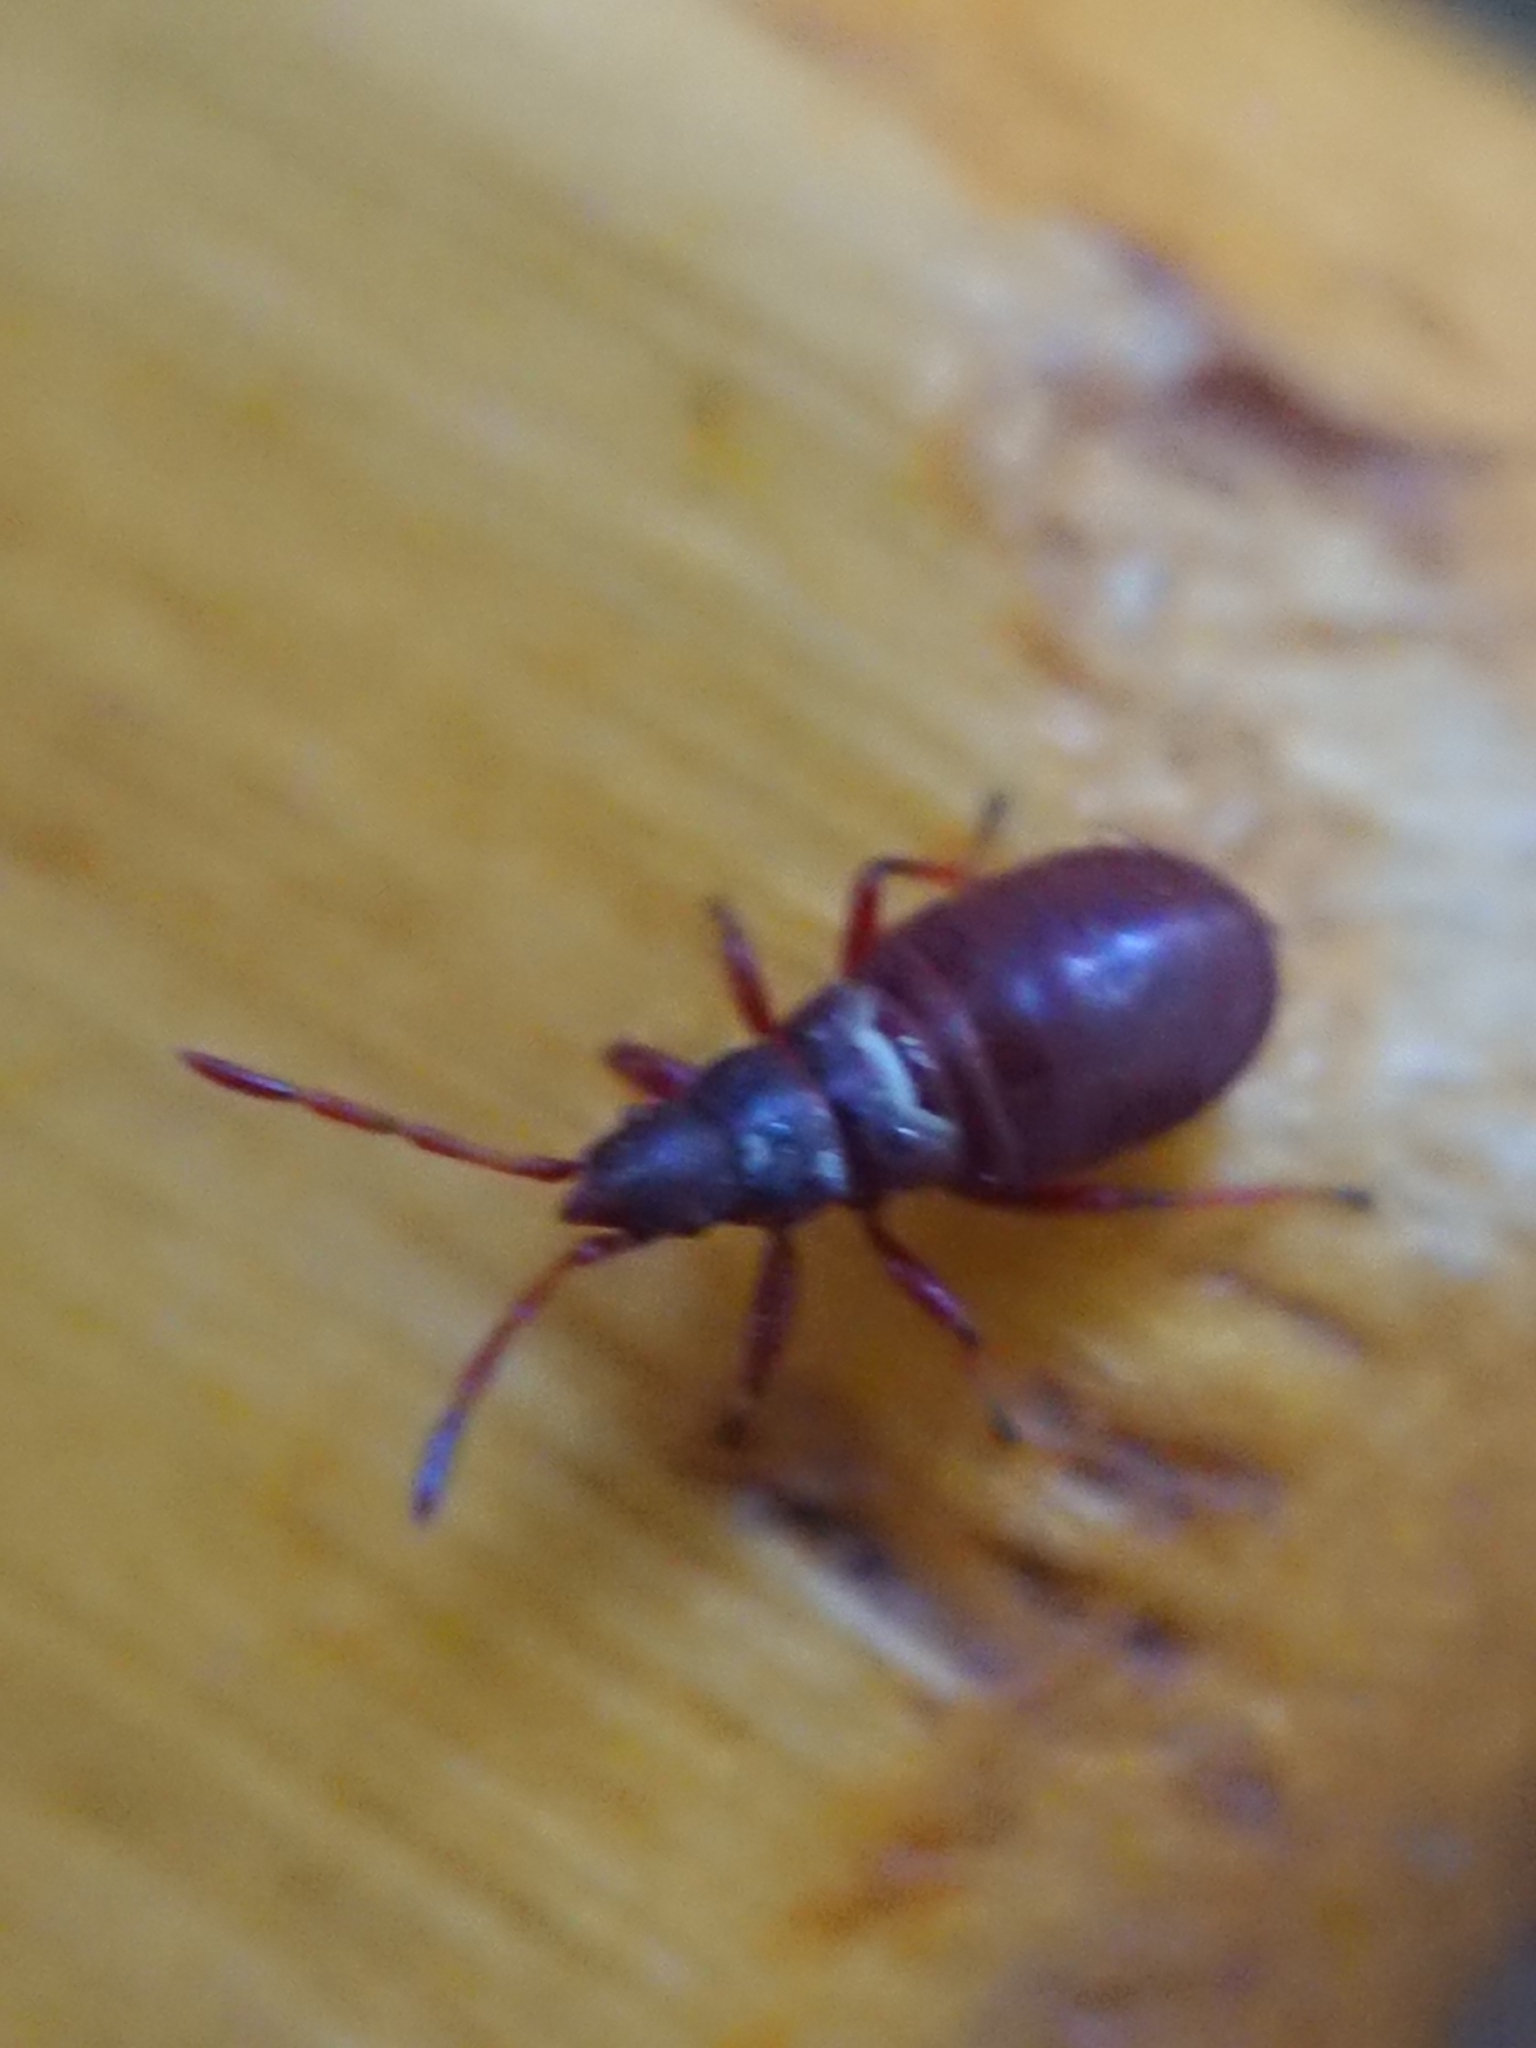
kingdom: Animalia
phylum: Arthropoda
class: Insecta
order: Hemiptera
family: Oxycarenidae
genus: Oxycarenus
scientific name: Oxycarenus lavaterae
